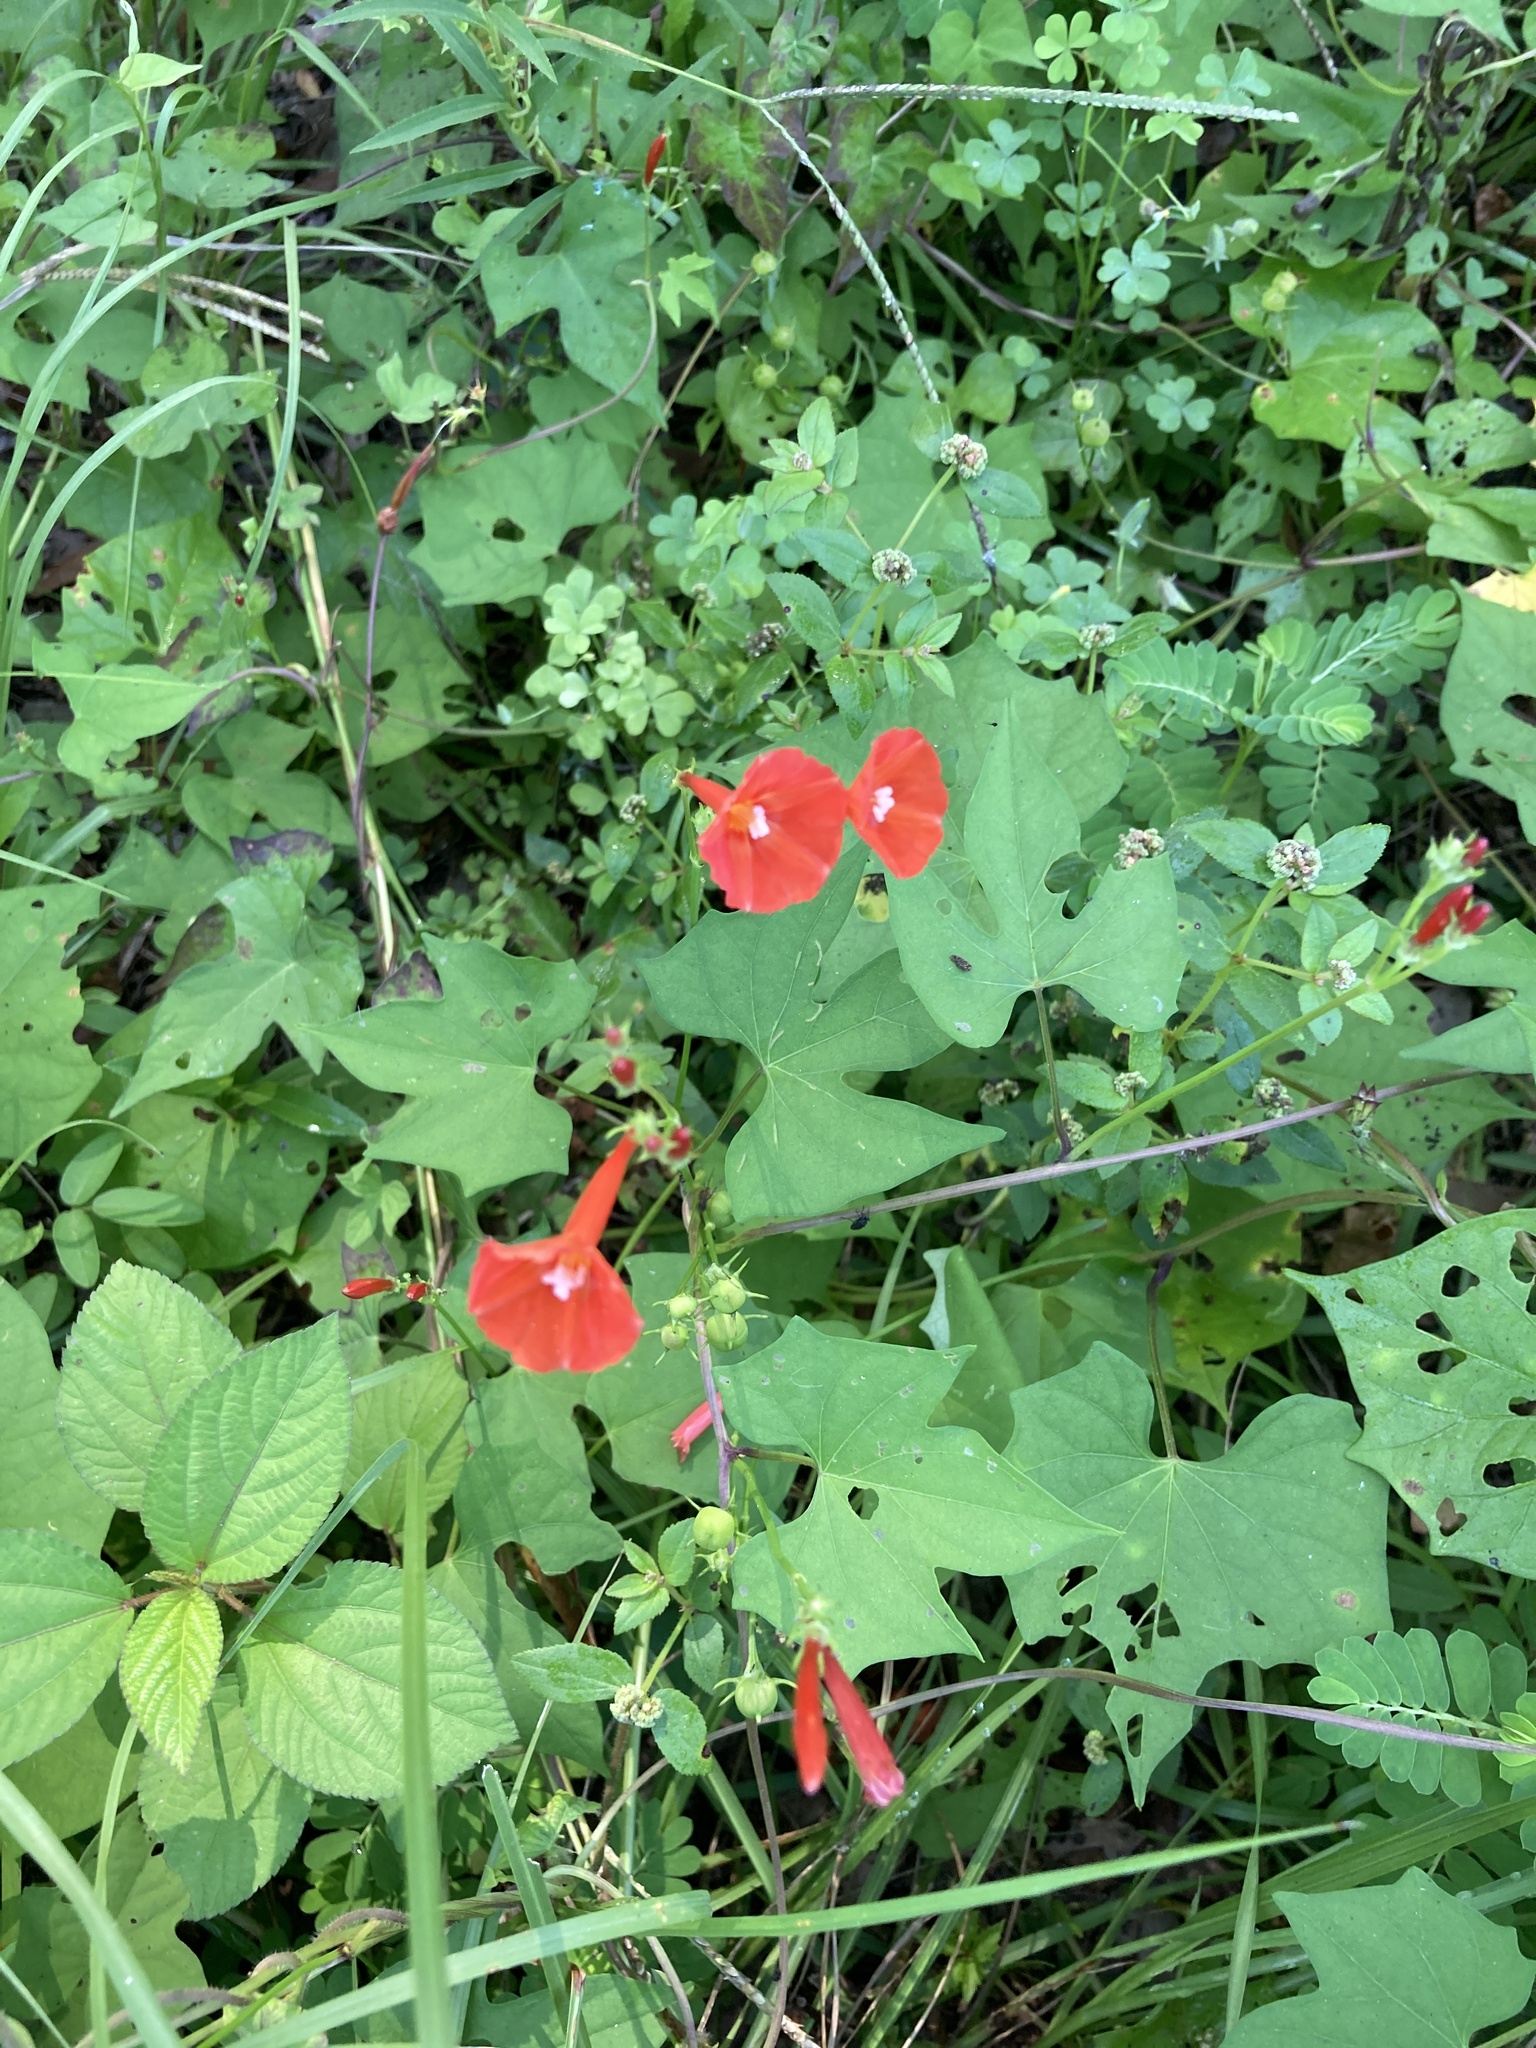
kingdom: Plantae
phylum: Tracheophyta
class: Magnoliopsida
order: Solanales
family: Convolvulaceae
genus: Ipomoea
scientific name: Ipomoea hederifolia
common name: Ivy-leaf morning-glory
